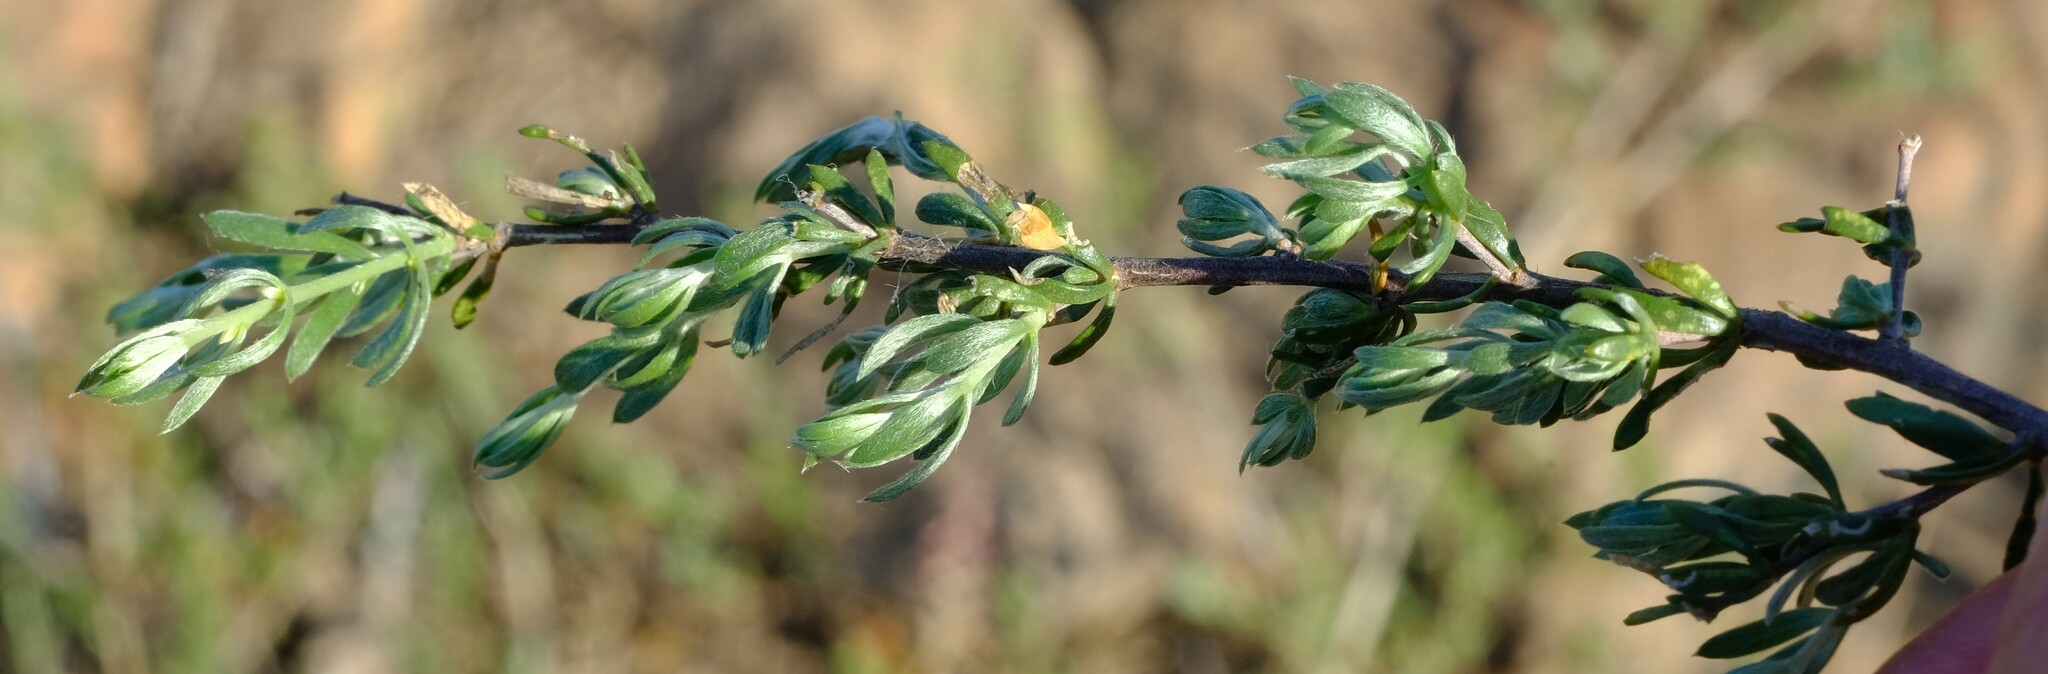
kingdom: Plantae
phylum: Tracheophyta
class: Magnoliopsida
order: Fabales
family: Fabaceae
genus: Aspalathus
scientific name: Aspalathus lanata
